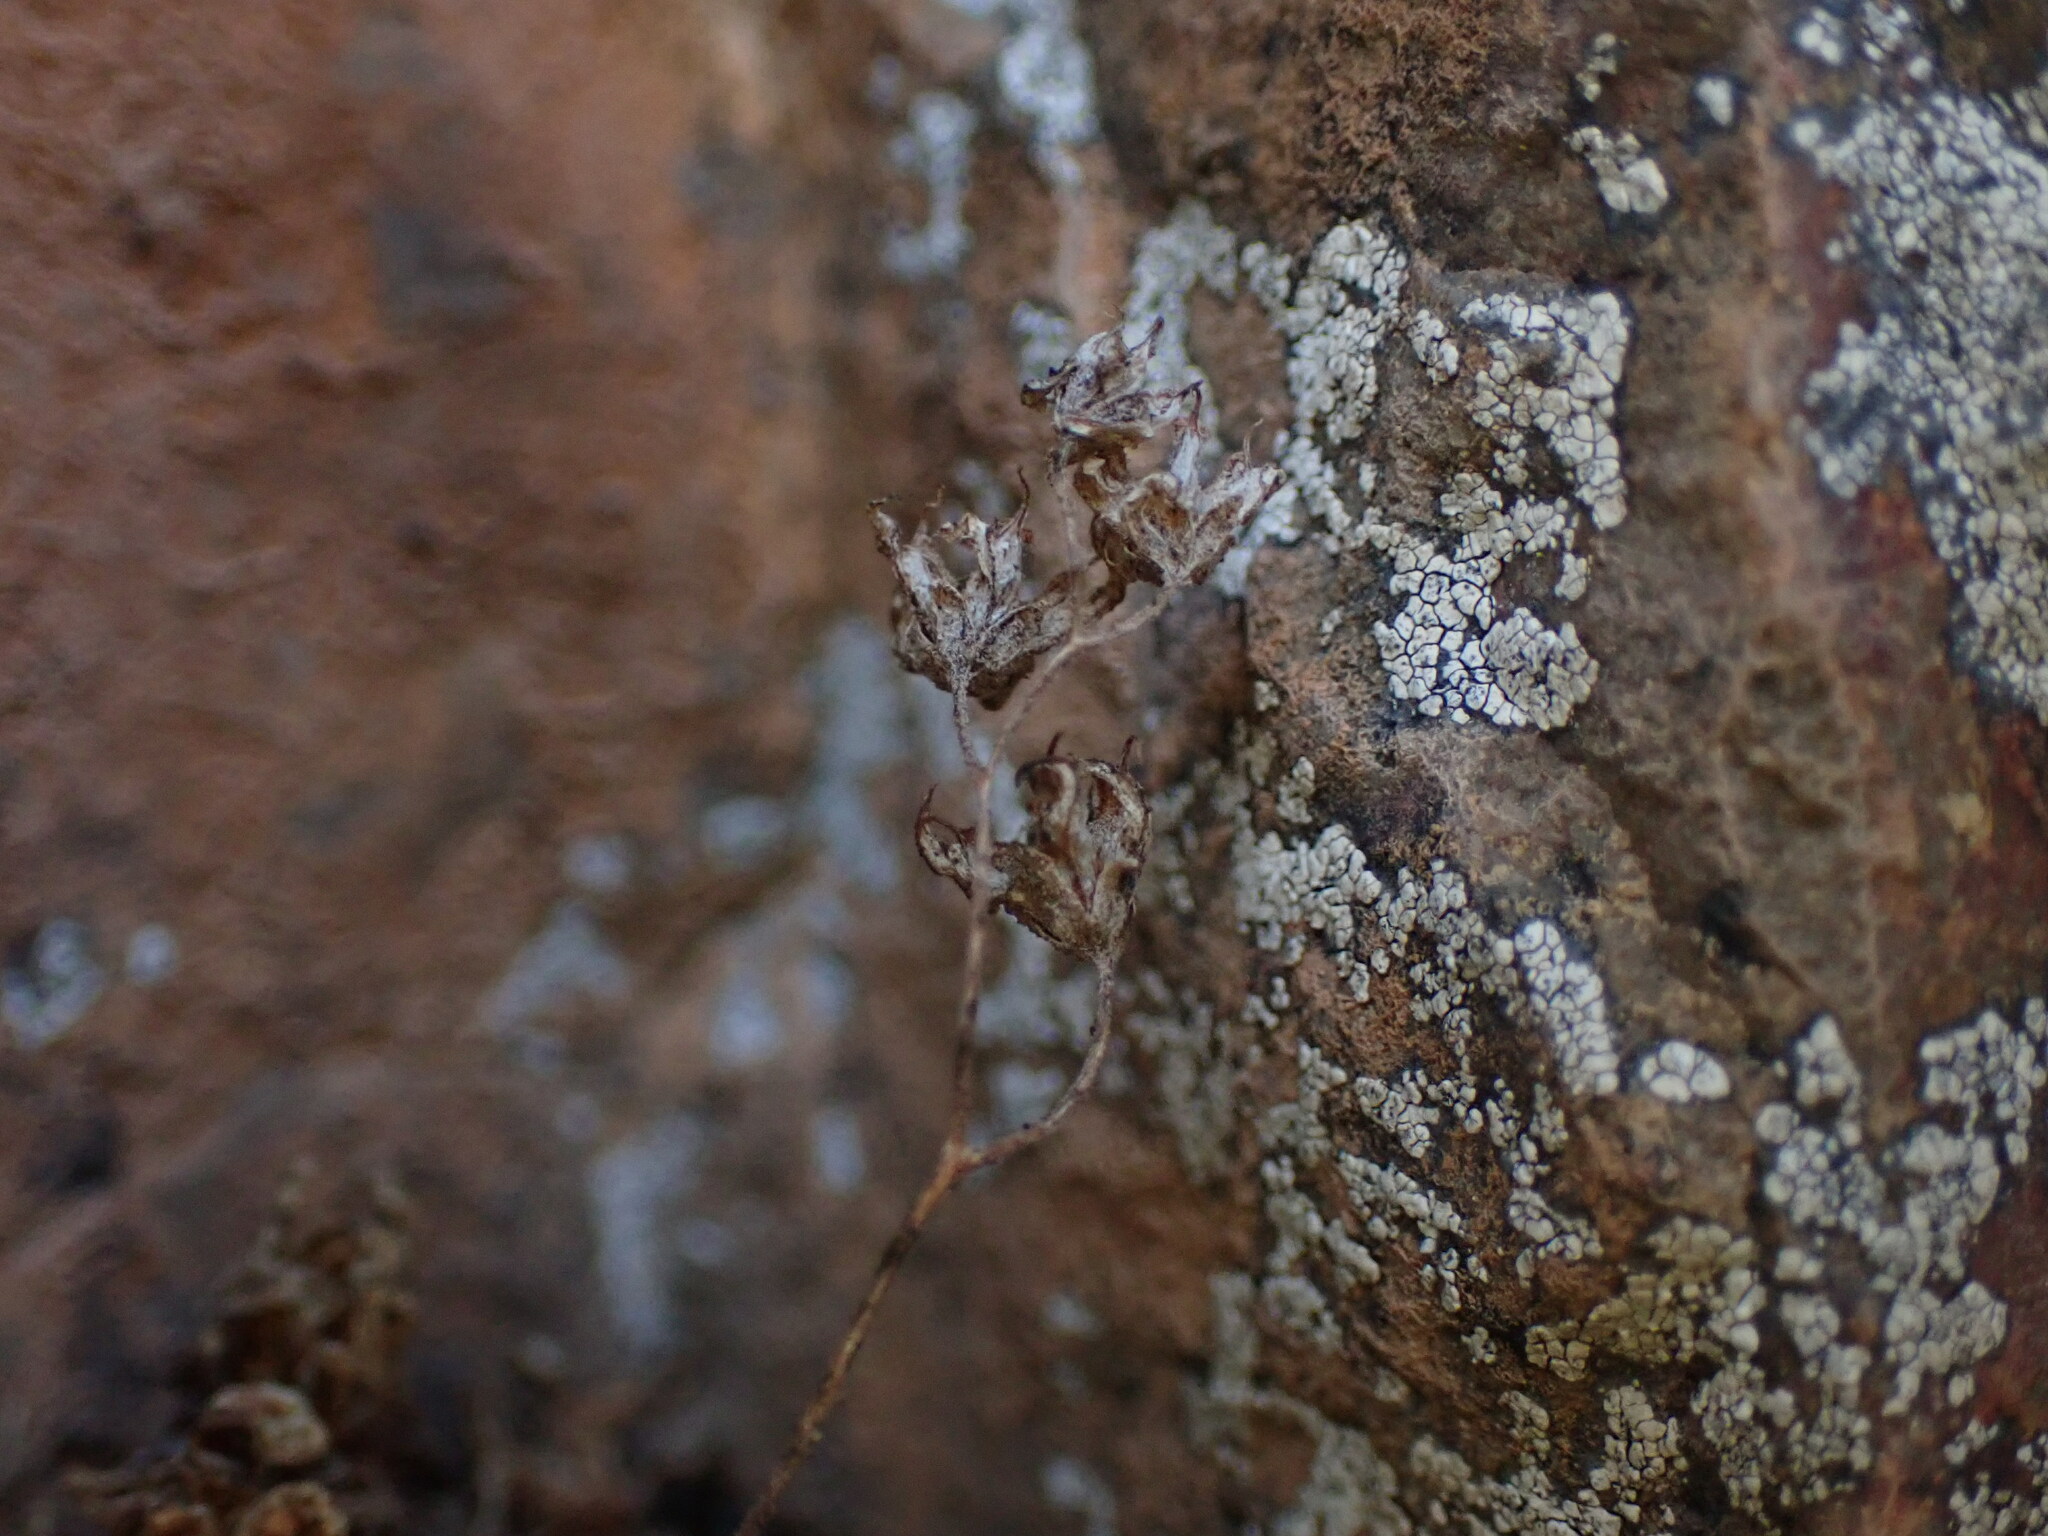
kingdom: Plantae
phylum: Tracheophyta
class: Magnoliopsida
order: Saxifragales
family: Crassulaceae
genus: Sedum
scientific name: Sedum hirsutum
